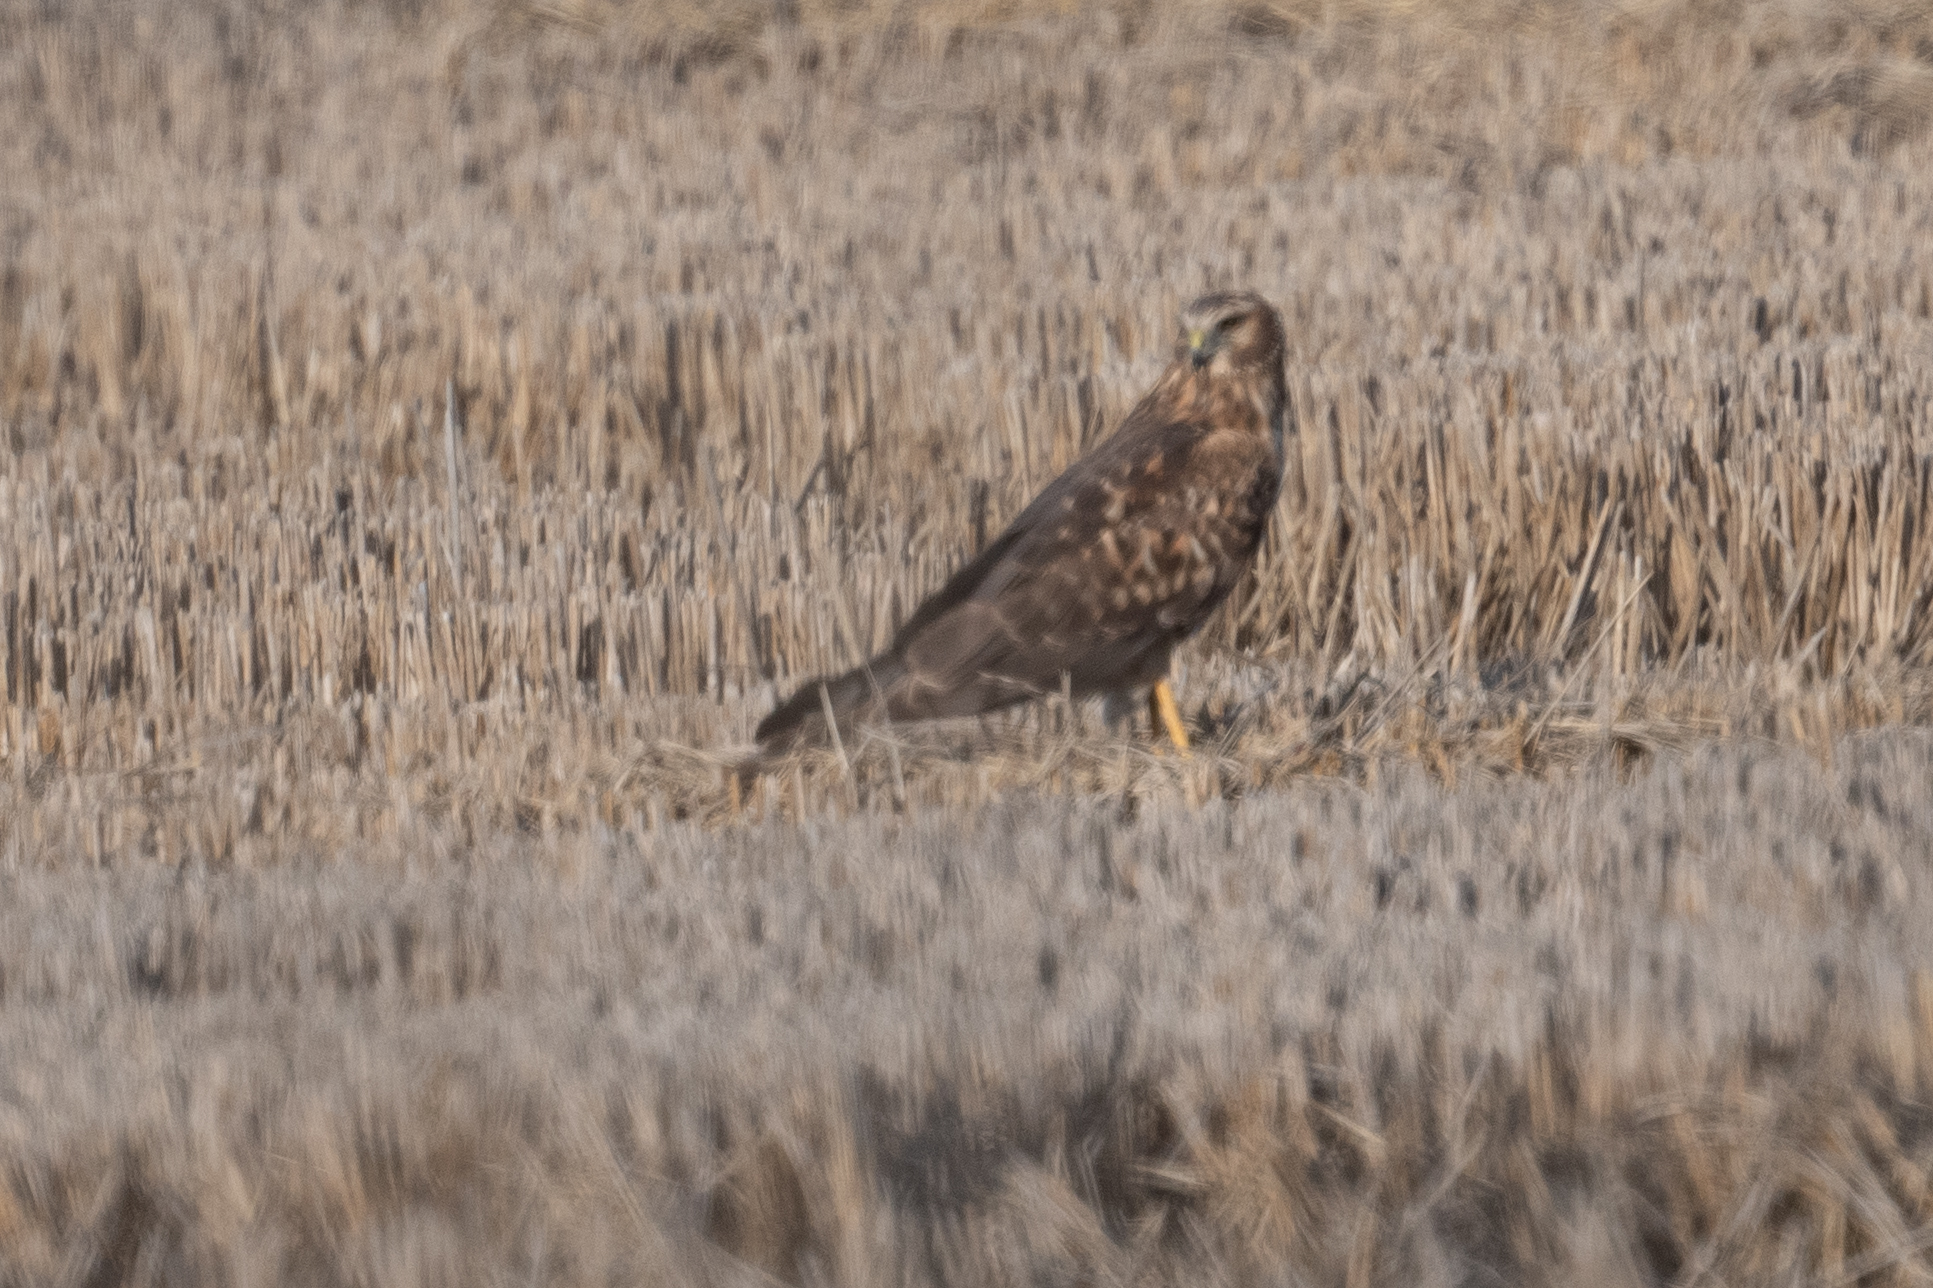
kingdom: Animalia
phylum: Chordata
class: Aves
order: Accipitriformes
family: Accipitridae
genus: Circus
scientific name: Circus cyaneus
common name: Hen harrier
